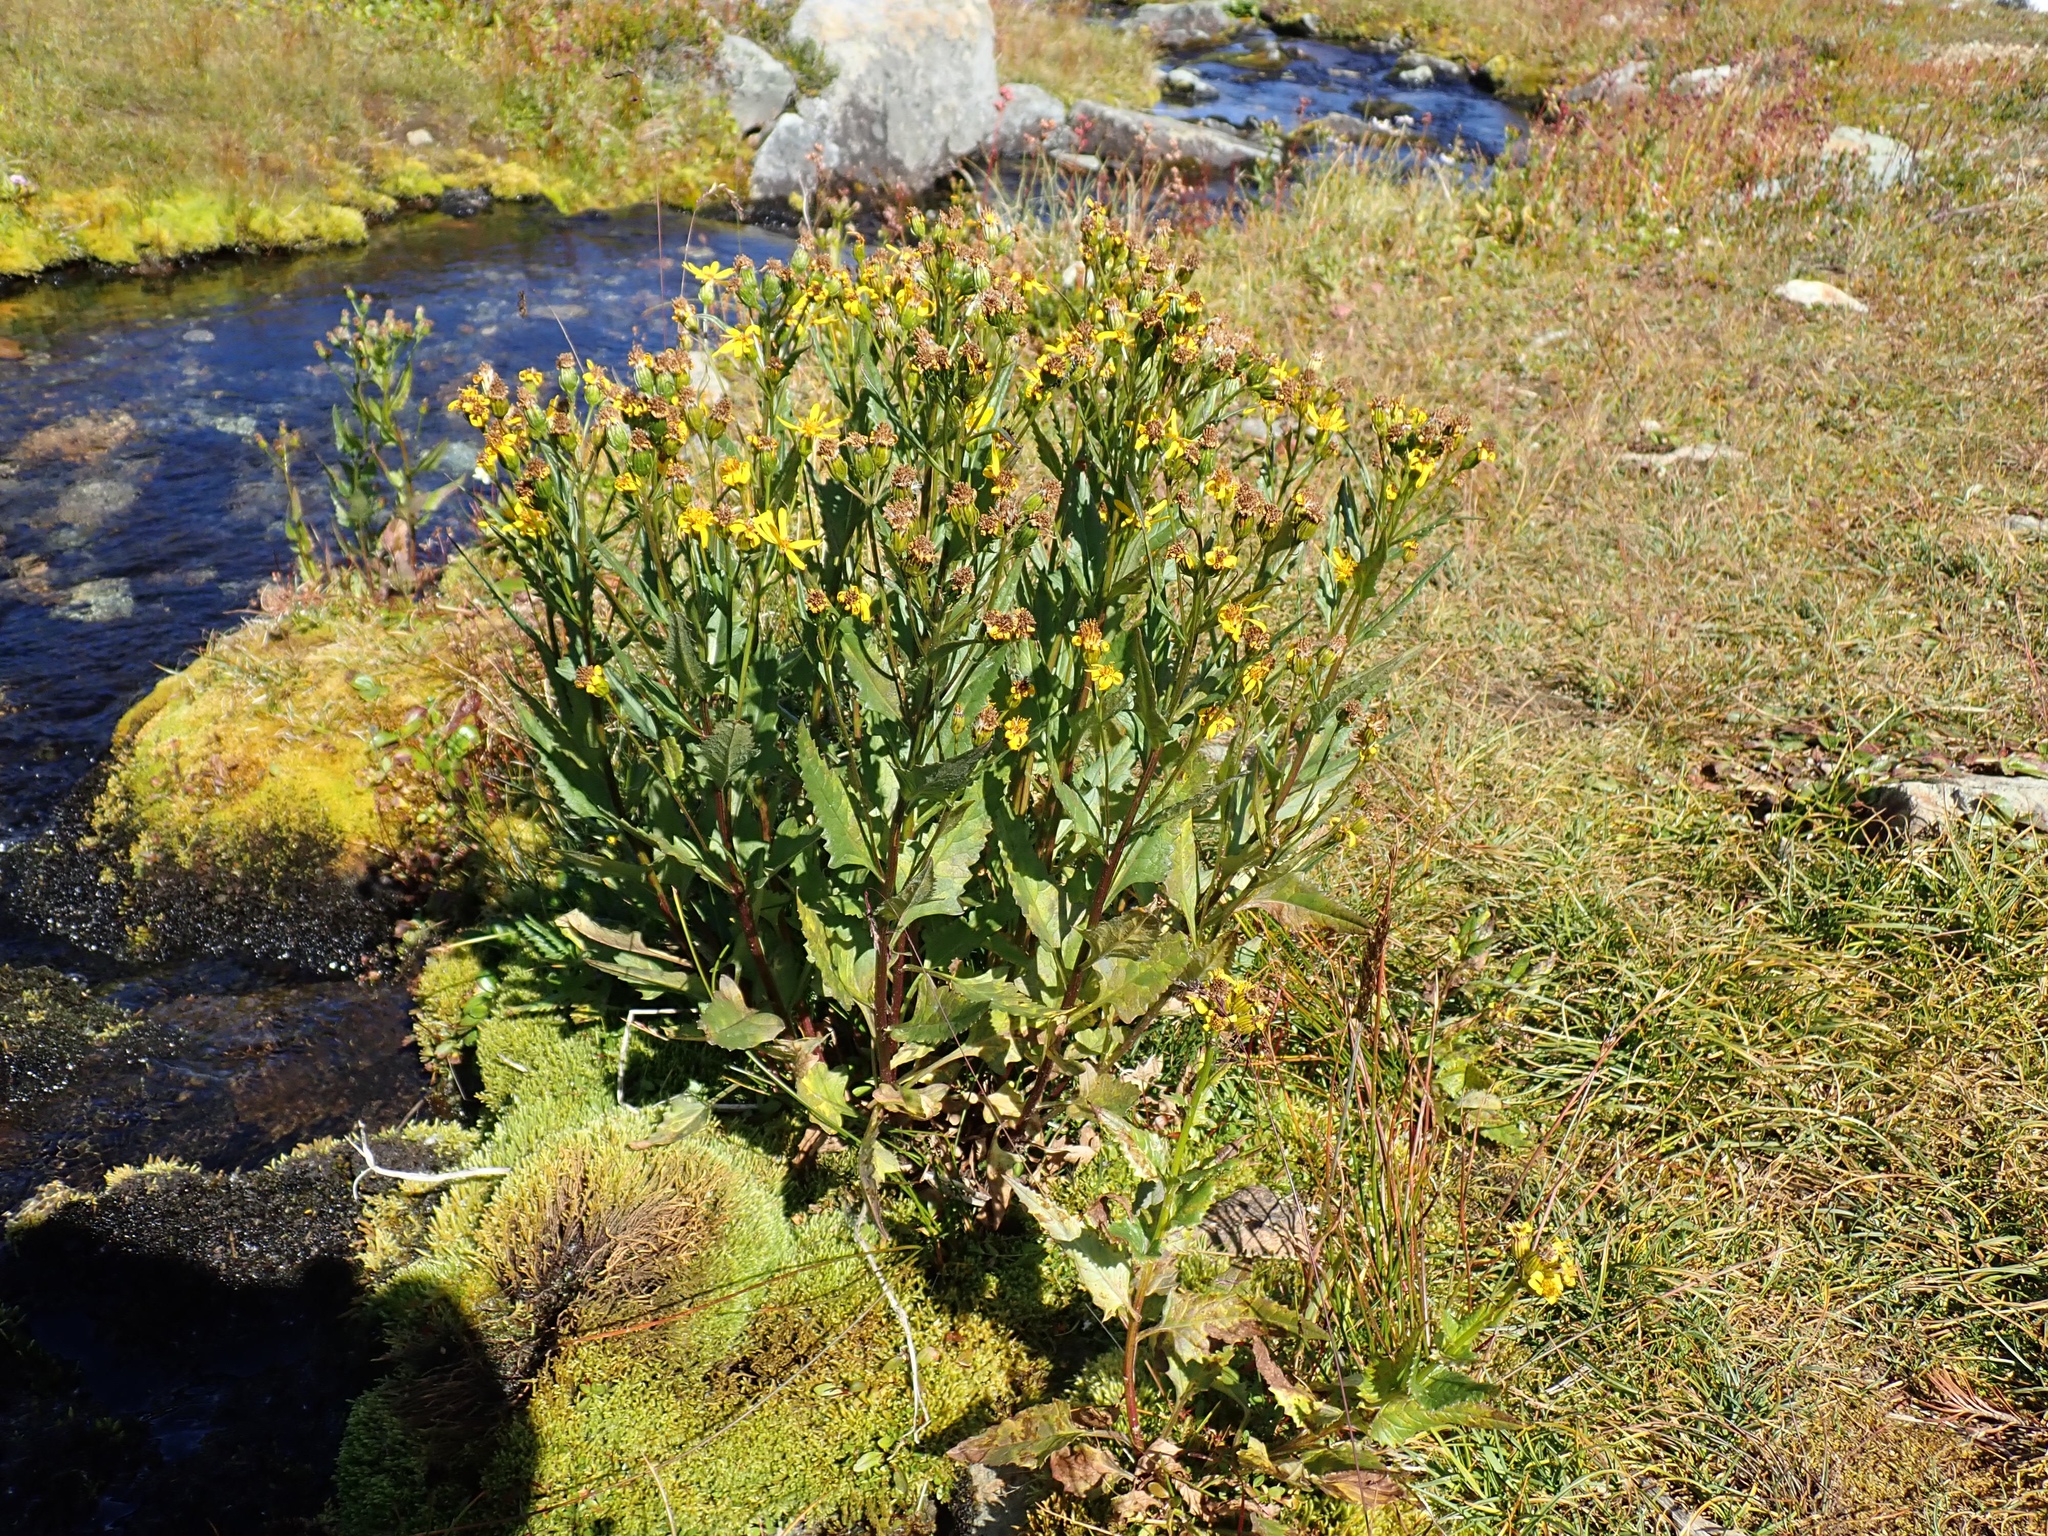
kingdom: Plantae
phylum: Tracheophyta
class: Magnoliopsida
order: Asterales
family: Asteraceae
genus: Senecio
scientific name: Senecio triangularis
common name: Arrowleaf butterweed
